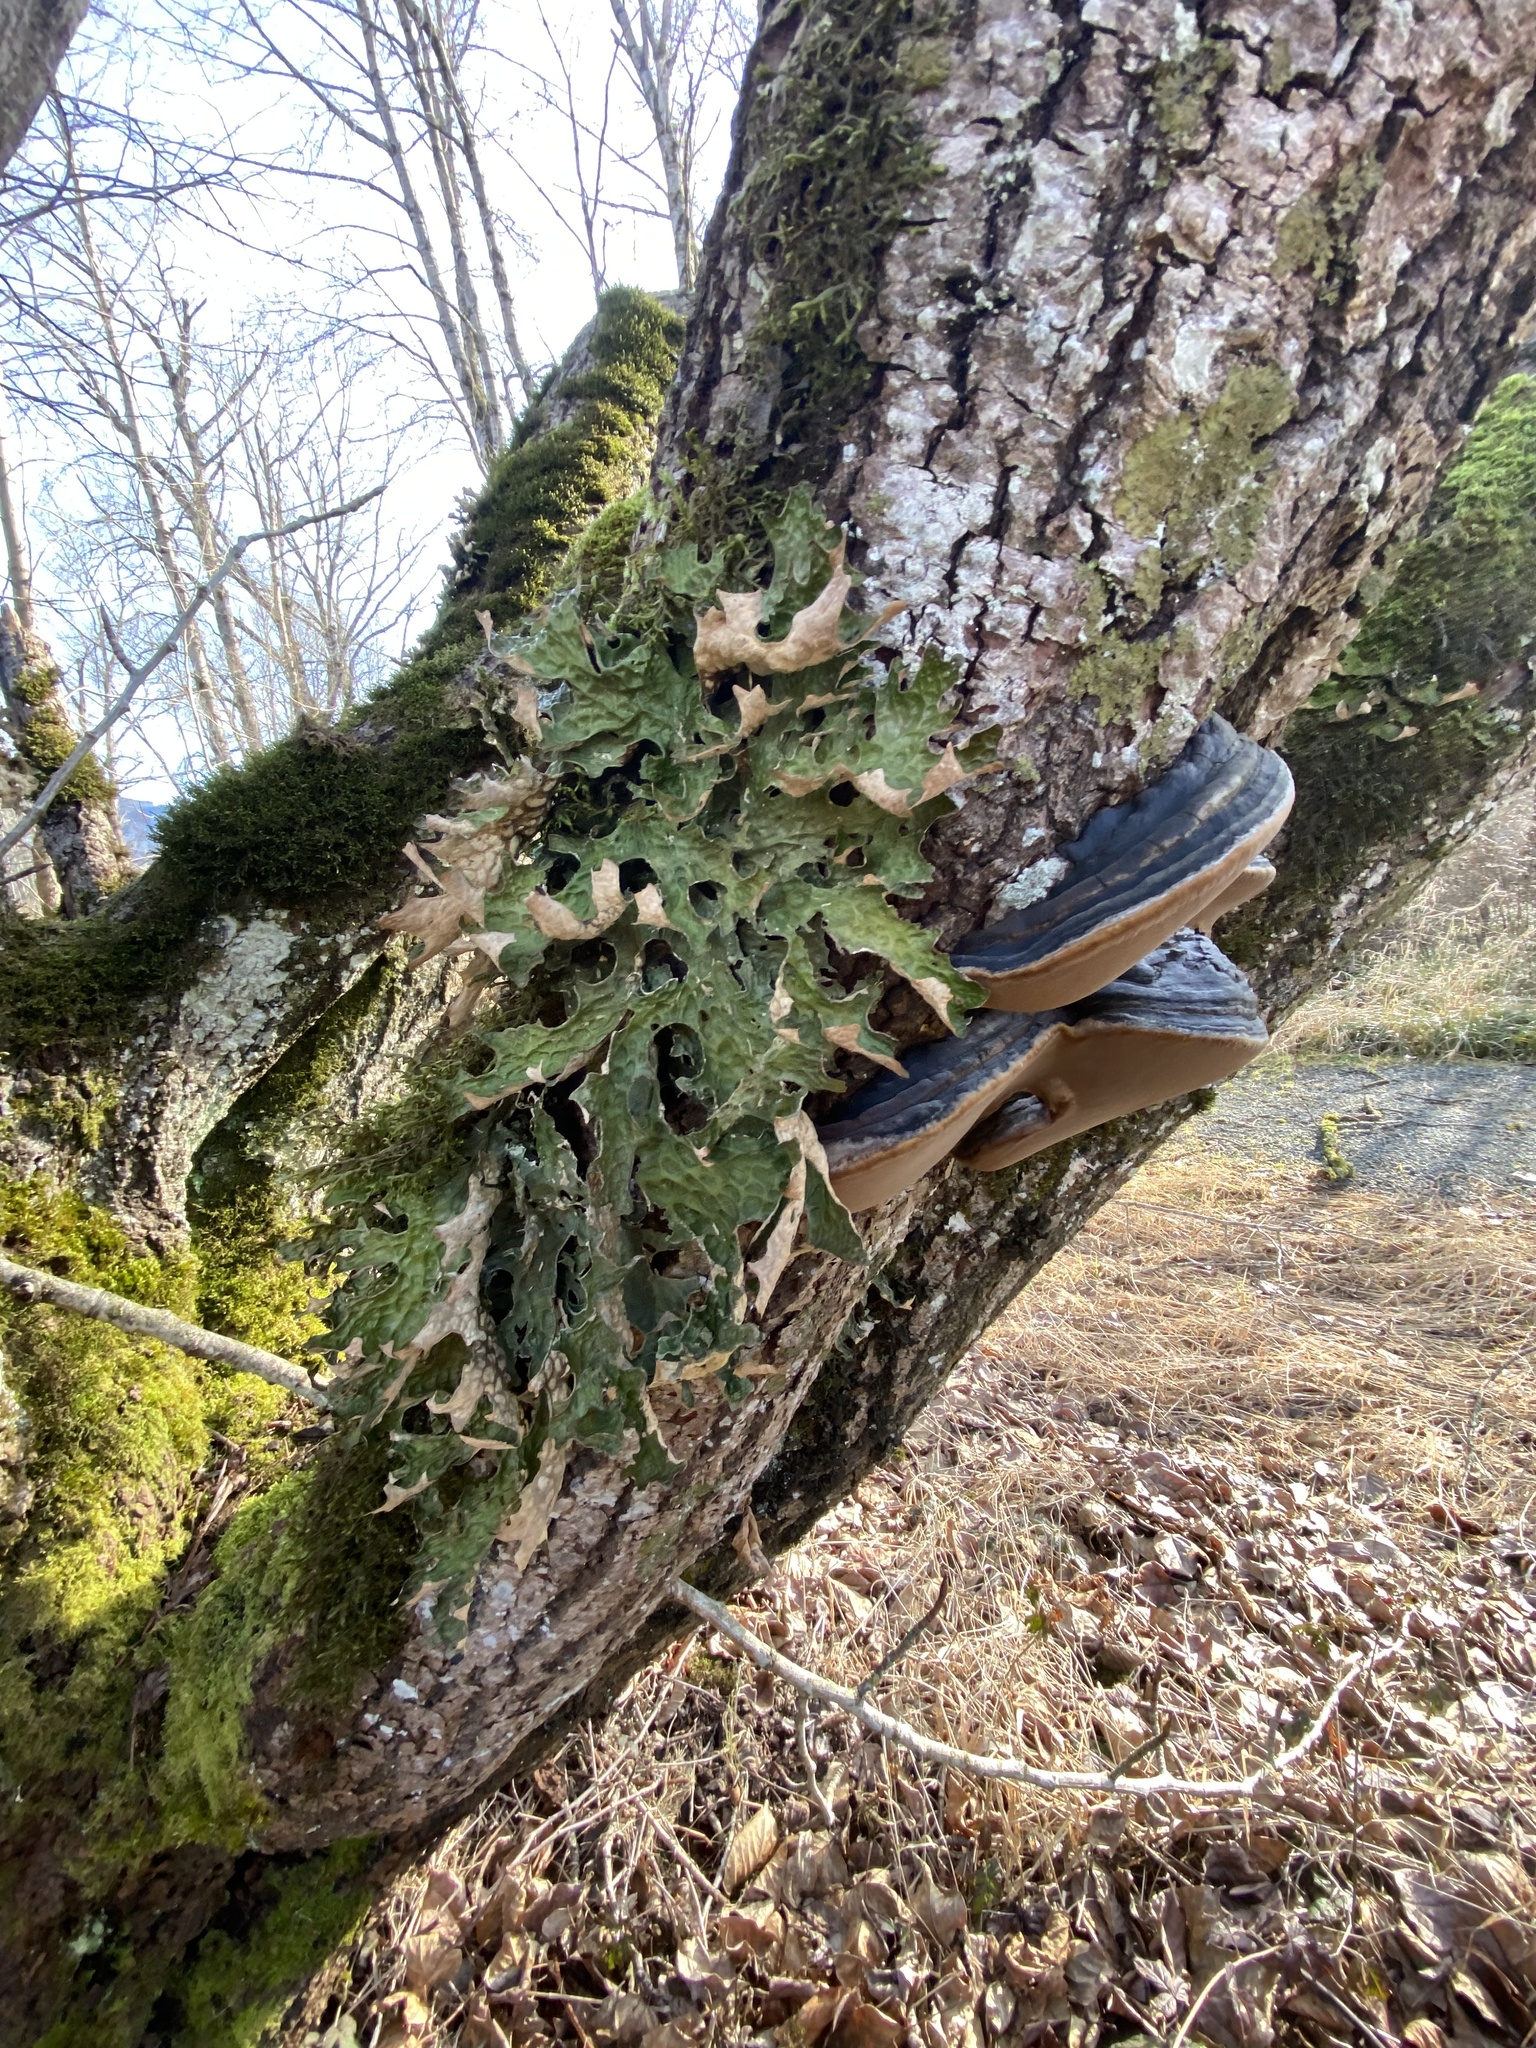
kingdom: Fungi
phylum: Ascomycota
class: Lecanoromycetes
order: Peltigerales
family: Lobariaceae
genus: Lobaria
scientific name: Lobaria pulmonaria
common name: Lungwort
